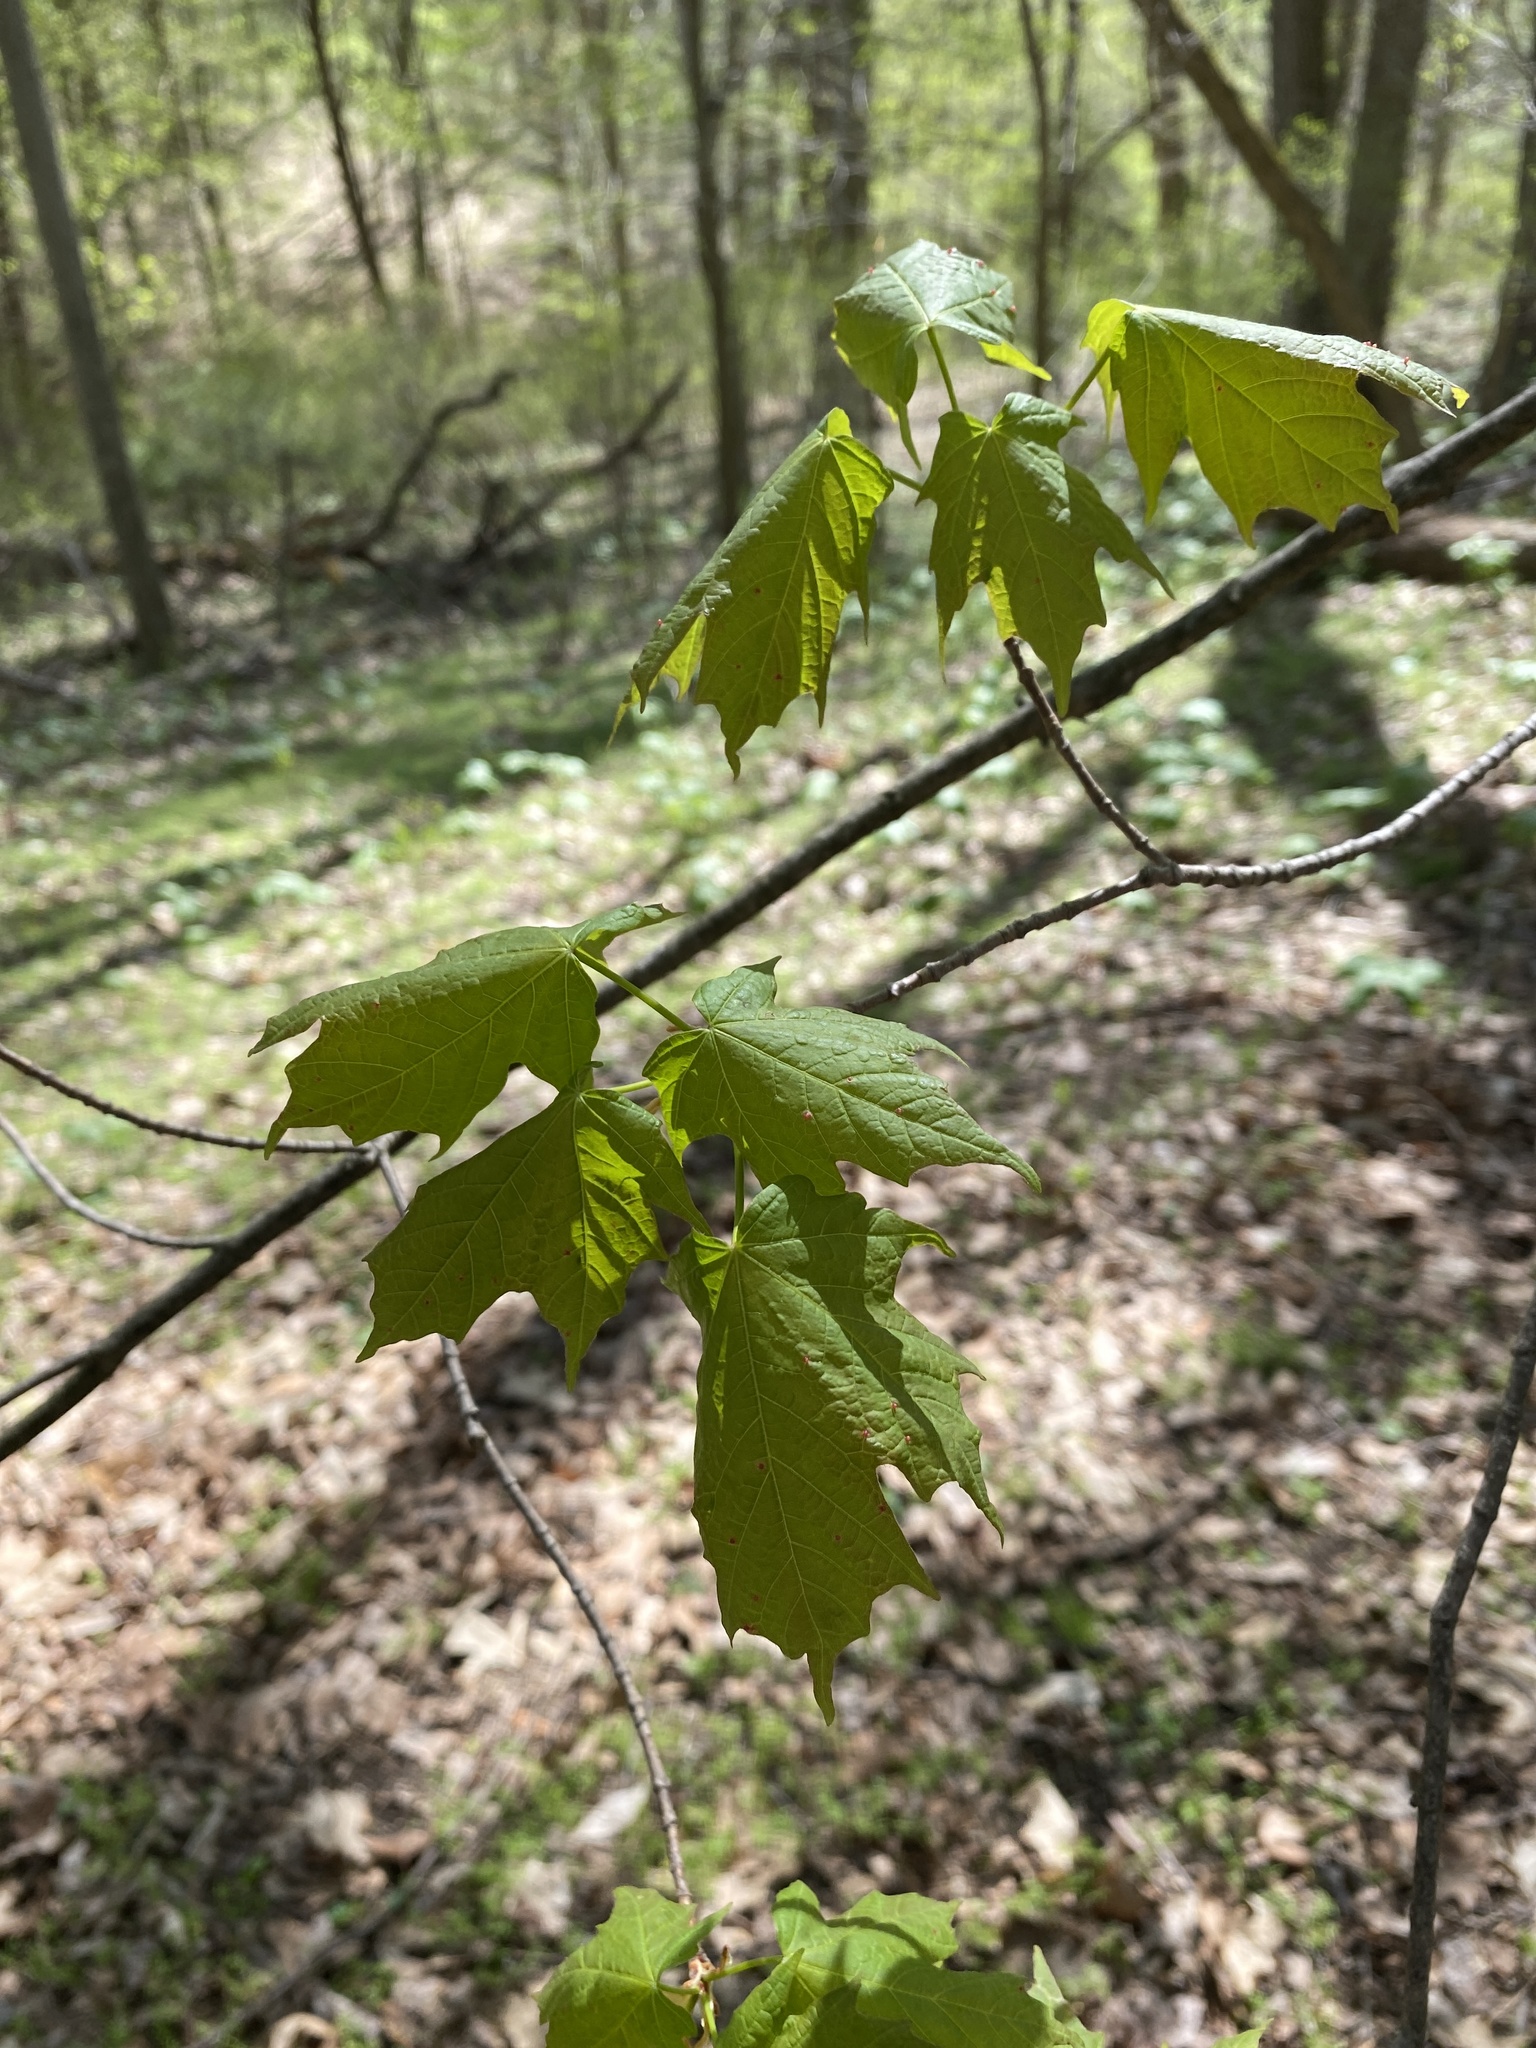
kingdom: Plantae
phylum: Tracheophyta
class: Magnoliopsida
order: Sapindales
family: Sapindaceae
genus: Acer
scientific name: Acer saccharum
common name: Sugar maple
